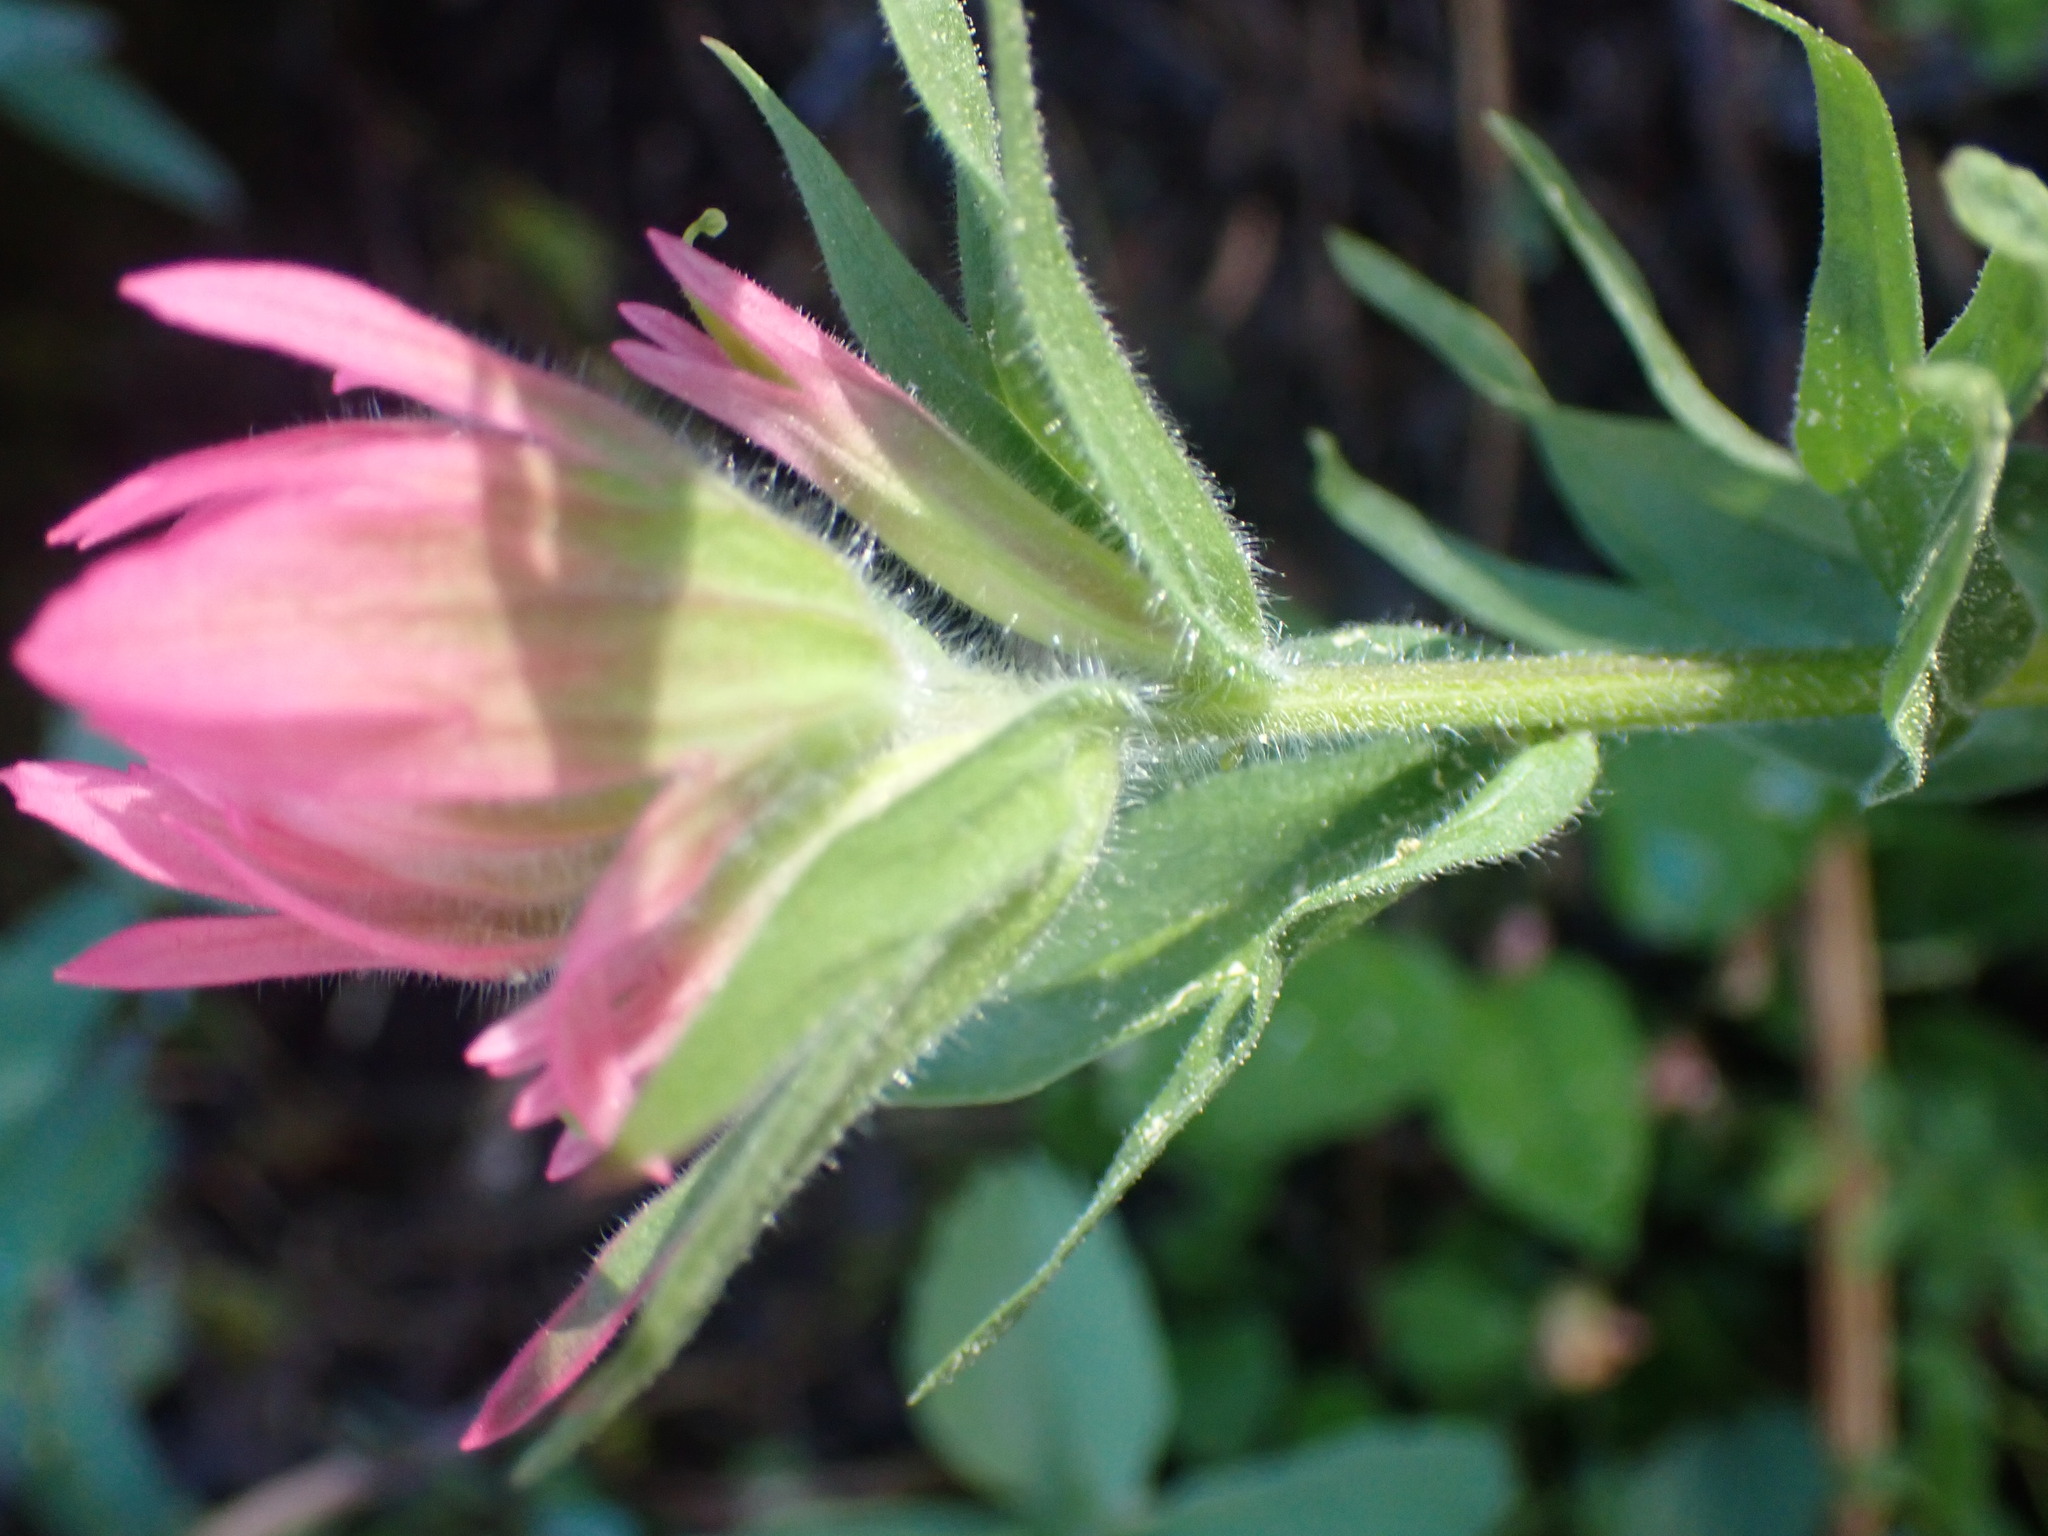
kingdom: Plantae
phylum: Tracheophyta
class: Magnoliopsida
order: Lamiales
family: Orobanchaceae
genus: Castilleja
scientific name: Castilleja rhexifolia
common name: Rocky mountain paintbrush
